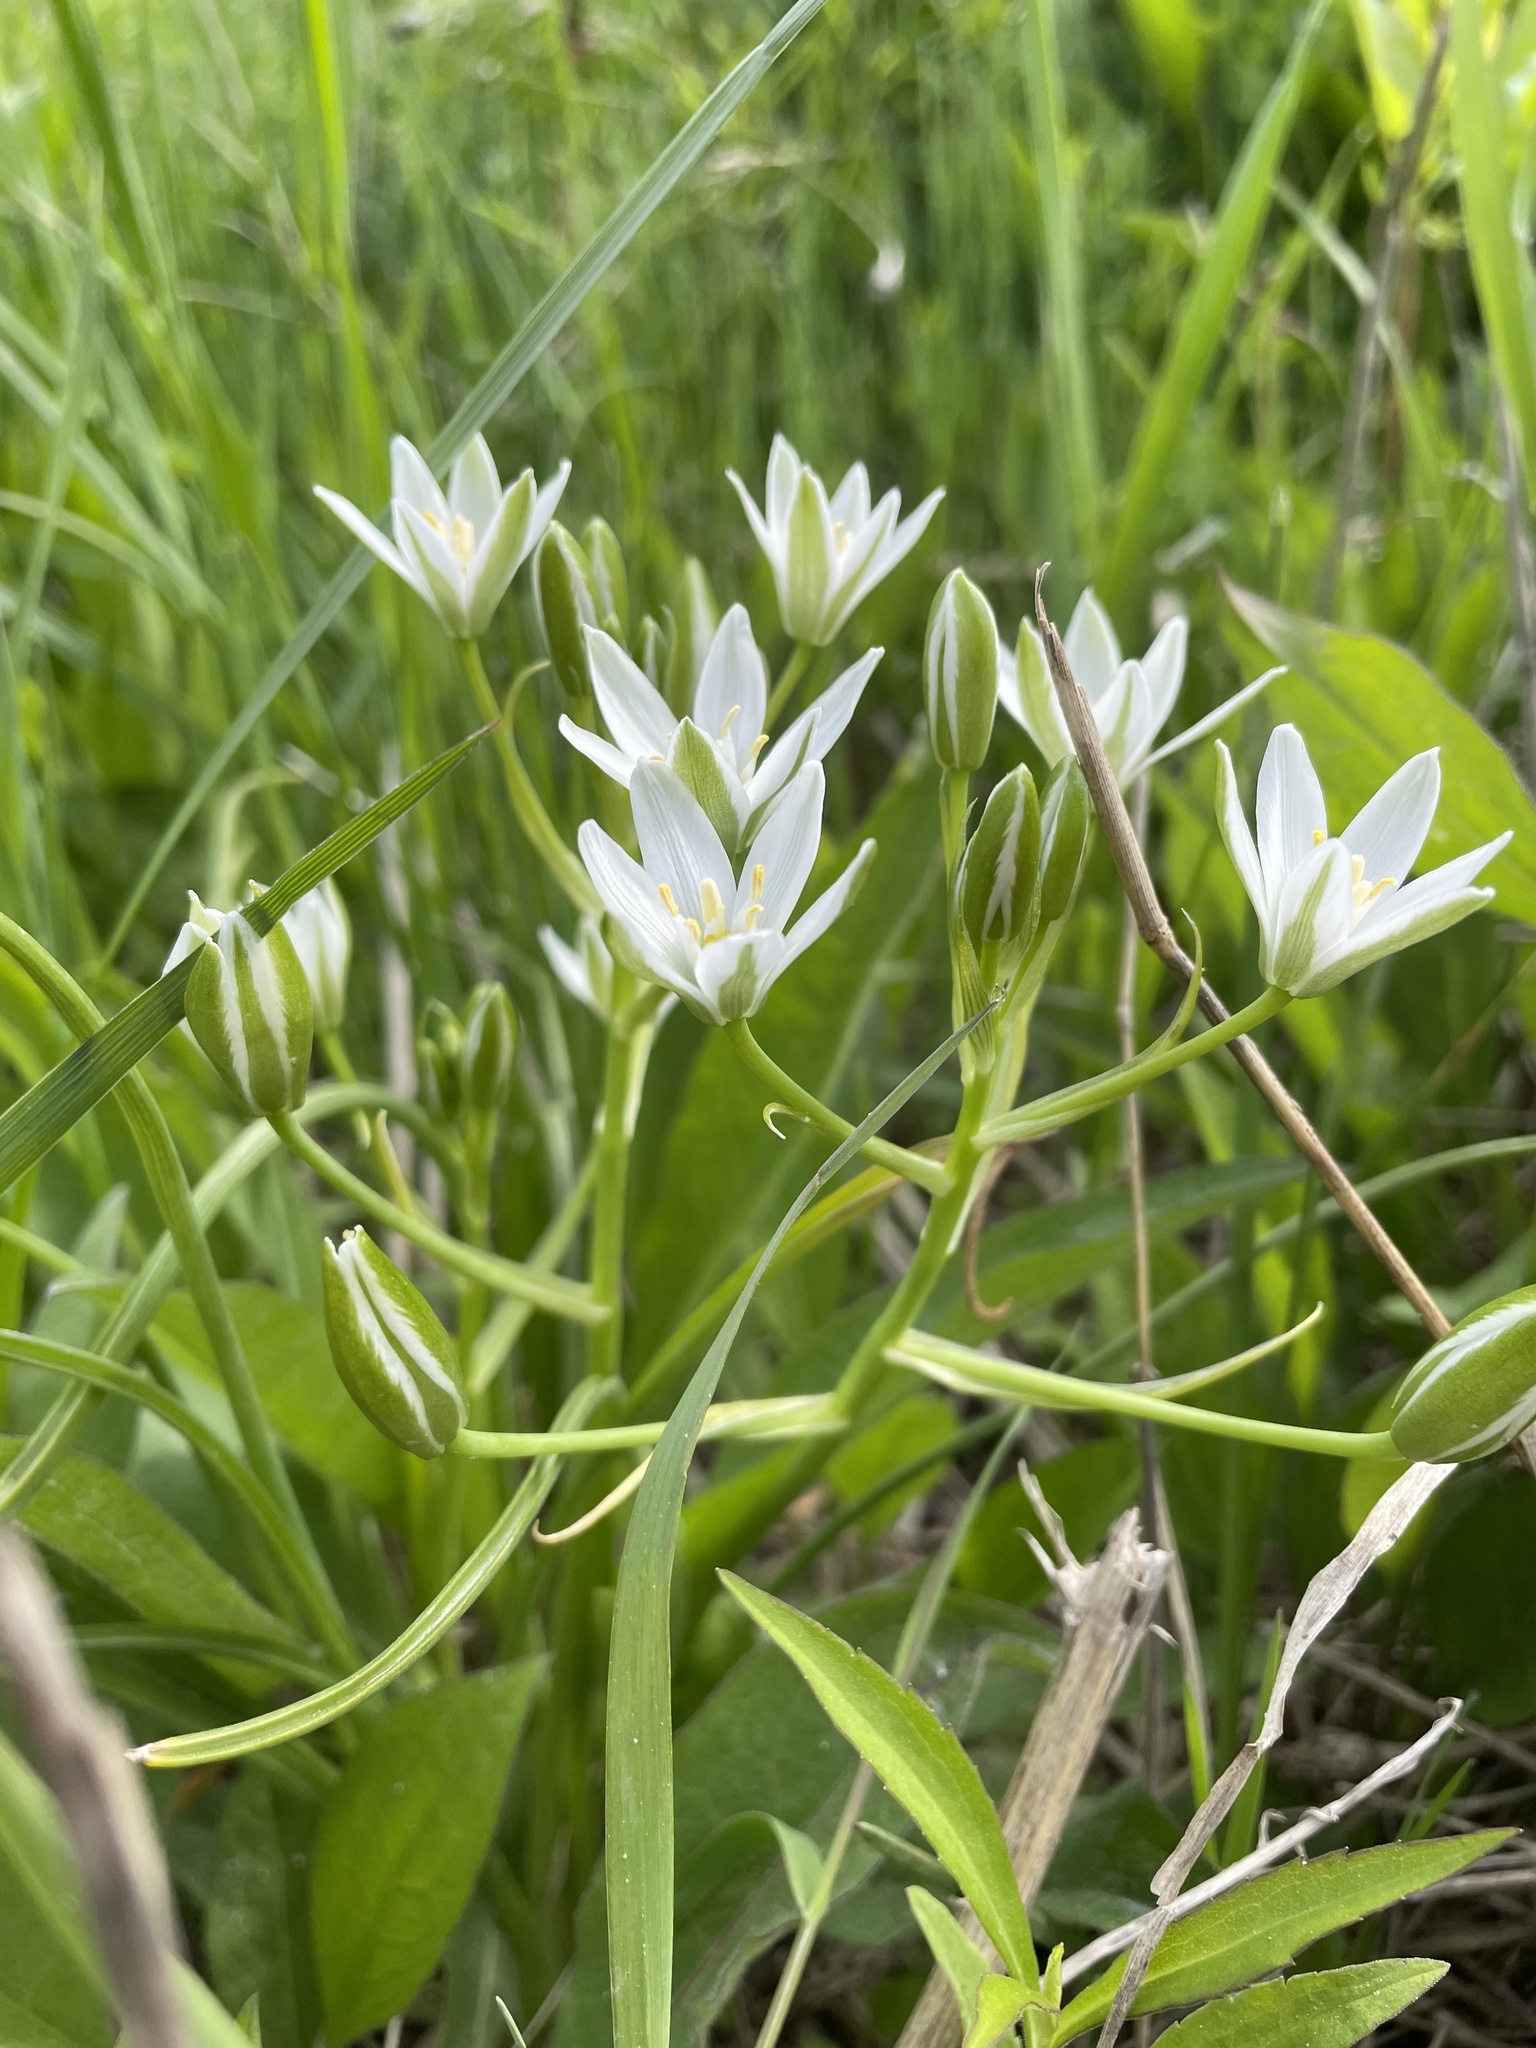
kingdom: Plantae
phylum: Tracheophyta
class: Liliopsida
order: Asparagales
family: Asparagaceae
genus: Ornithogalum
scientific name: Ornithogalum umbellatum
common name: Garden star-of-bethlehem
